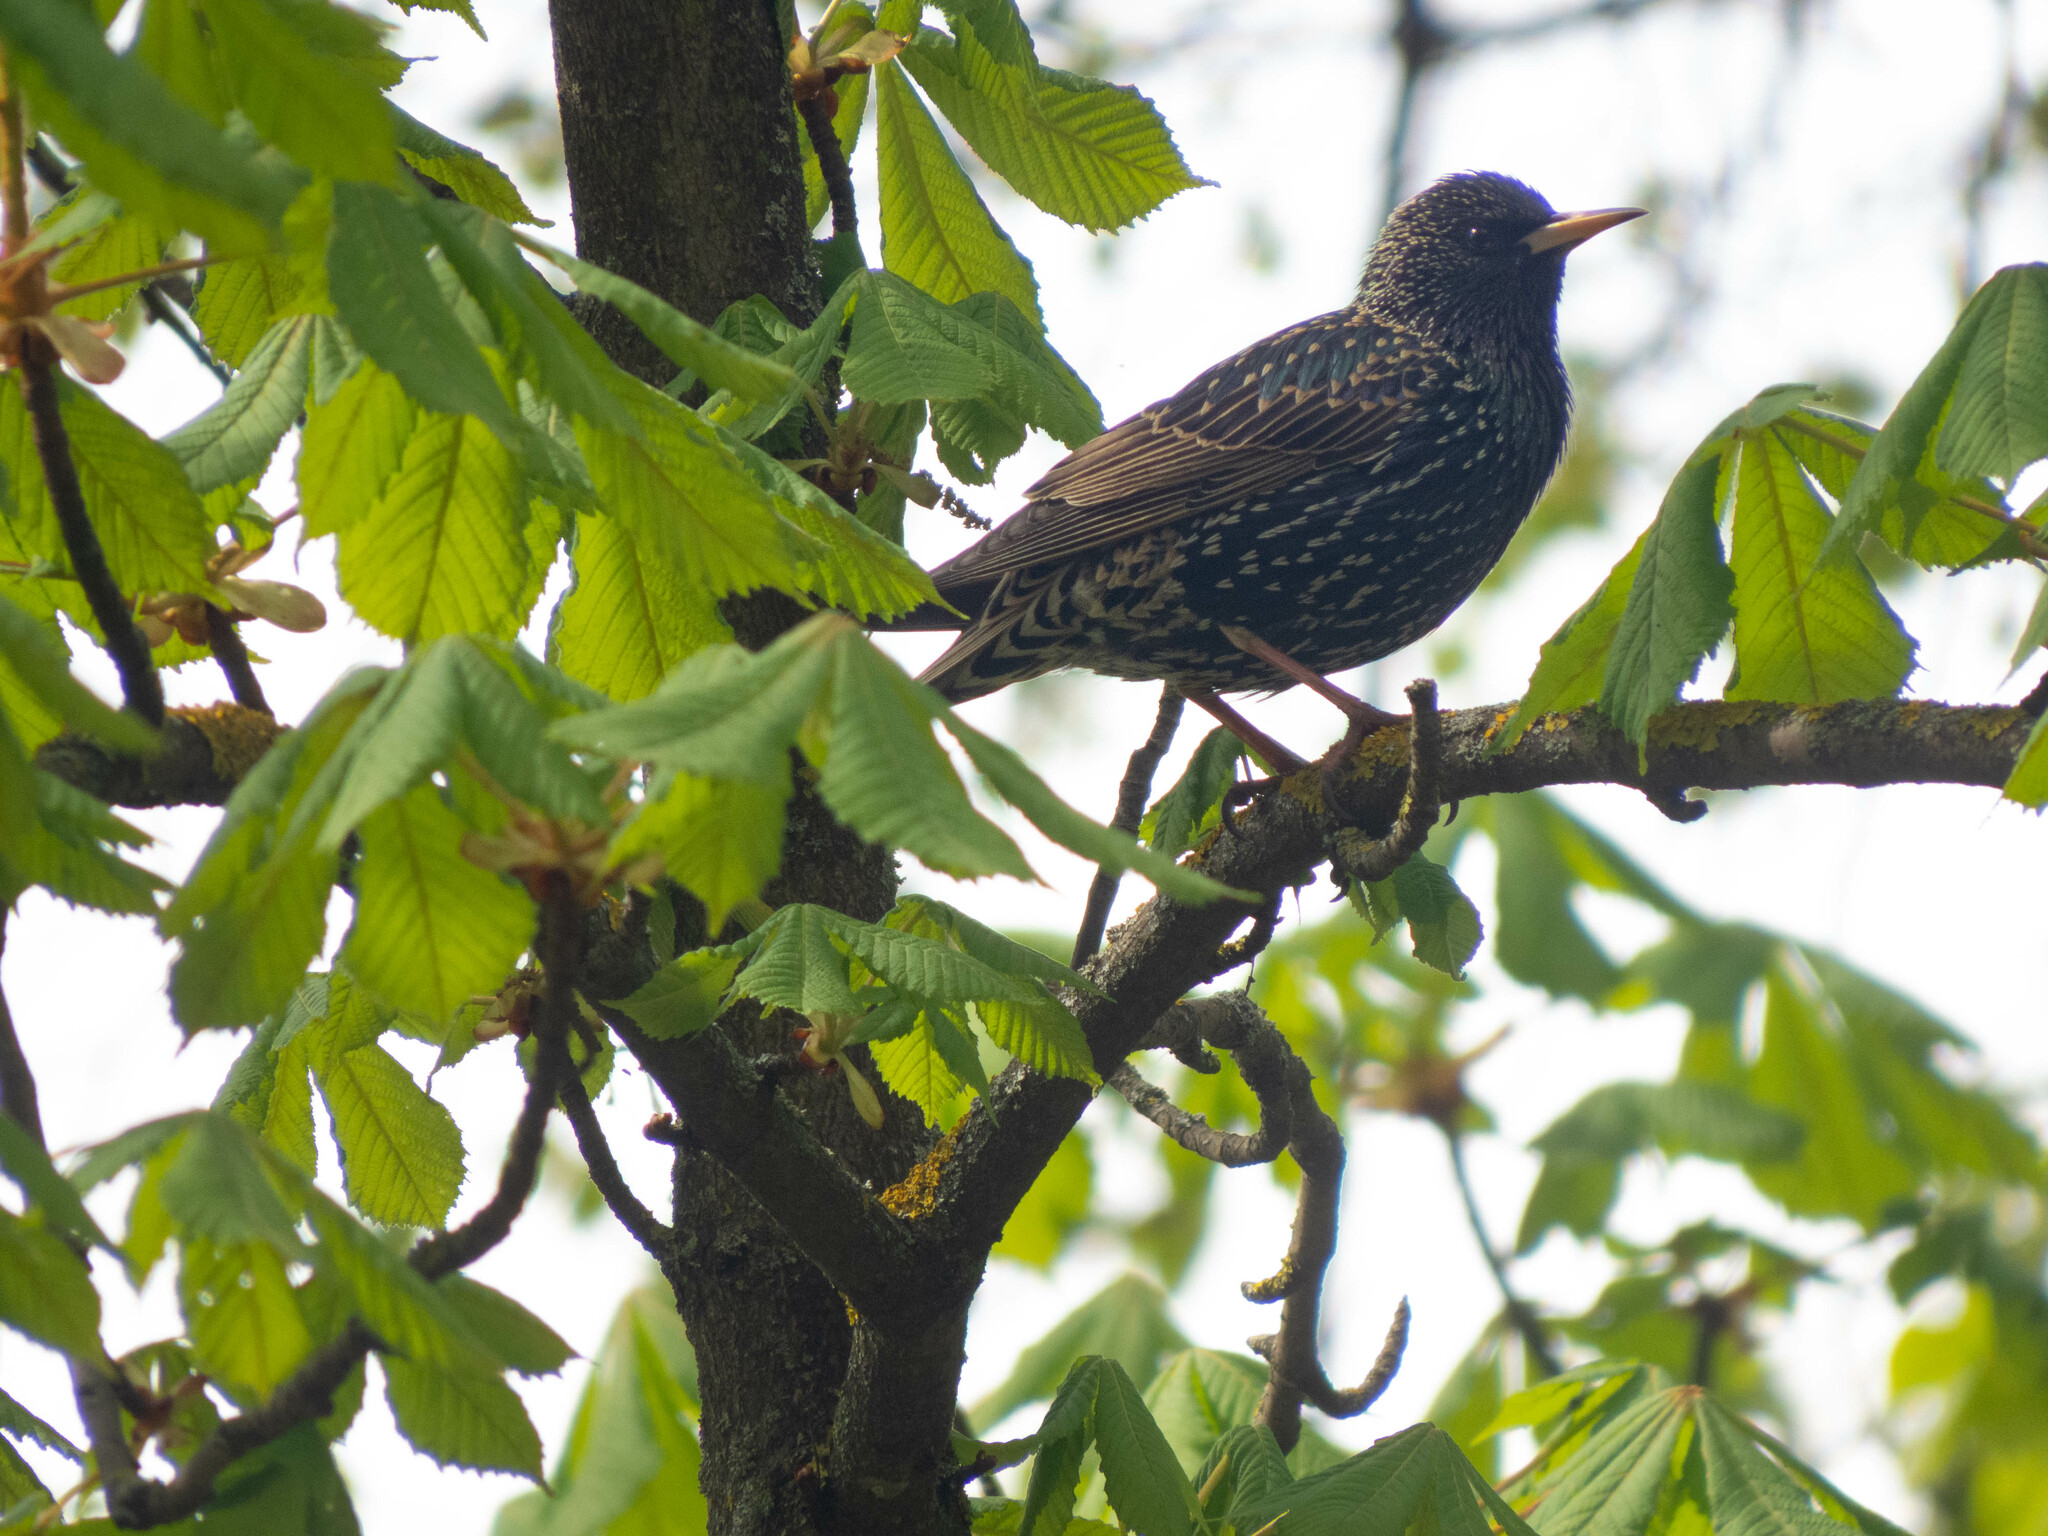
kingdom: Animalia
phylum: Chordata
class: Aves
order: Passeriformes
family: Sturnidae
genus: Sturnus
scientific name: Sturnus vulgaris
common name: Common starling
